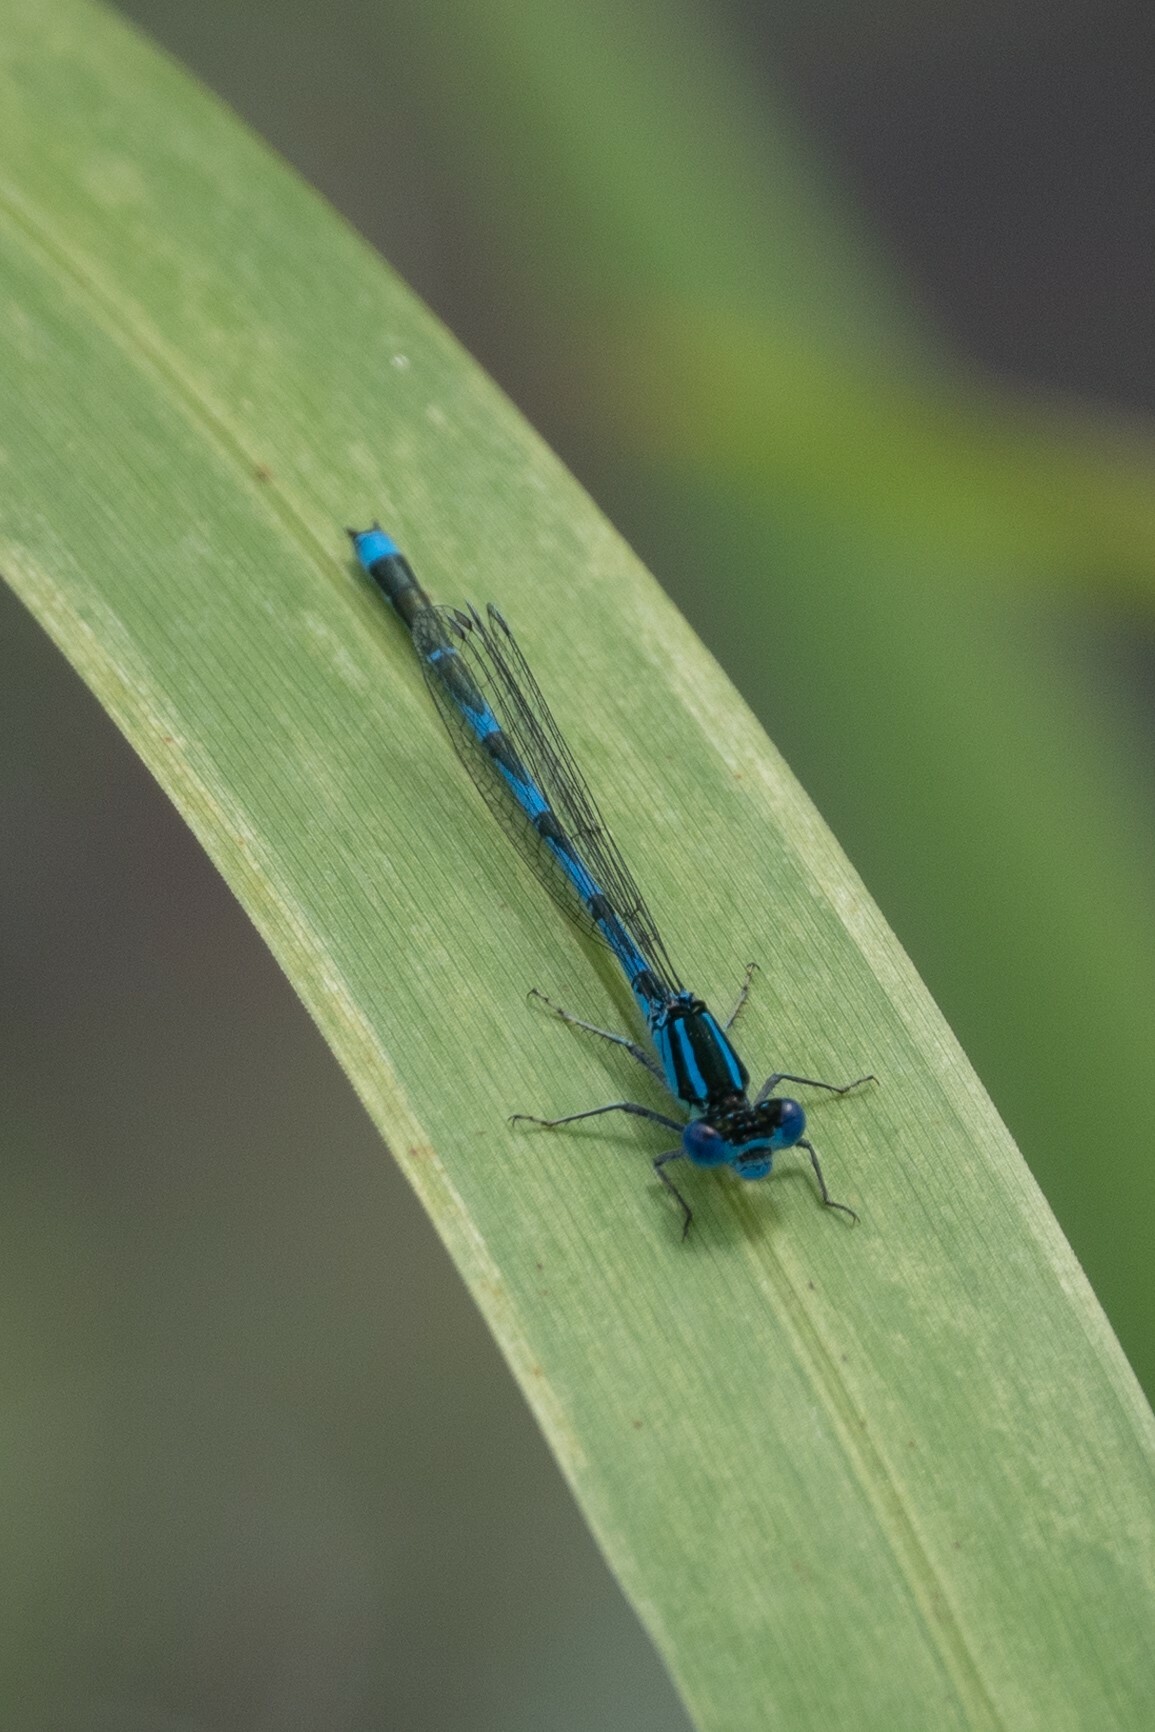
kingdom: Animalia
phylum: Arthropoda
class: Insecta
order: Odonata
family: Coenagrionidae
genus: Erythromma
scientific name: Erythromma lindenii
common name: Blue-eye
